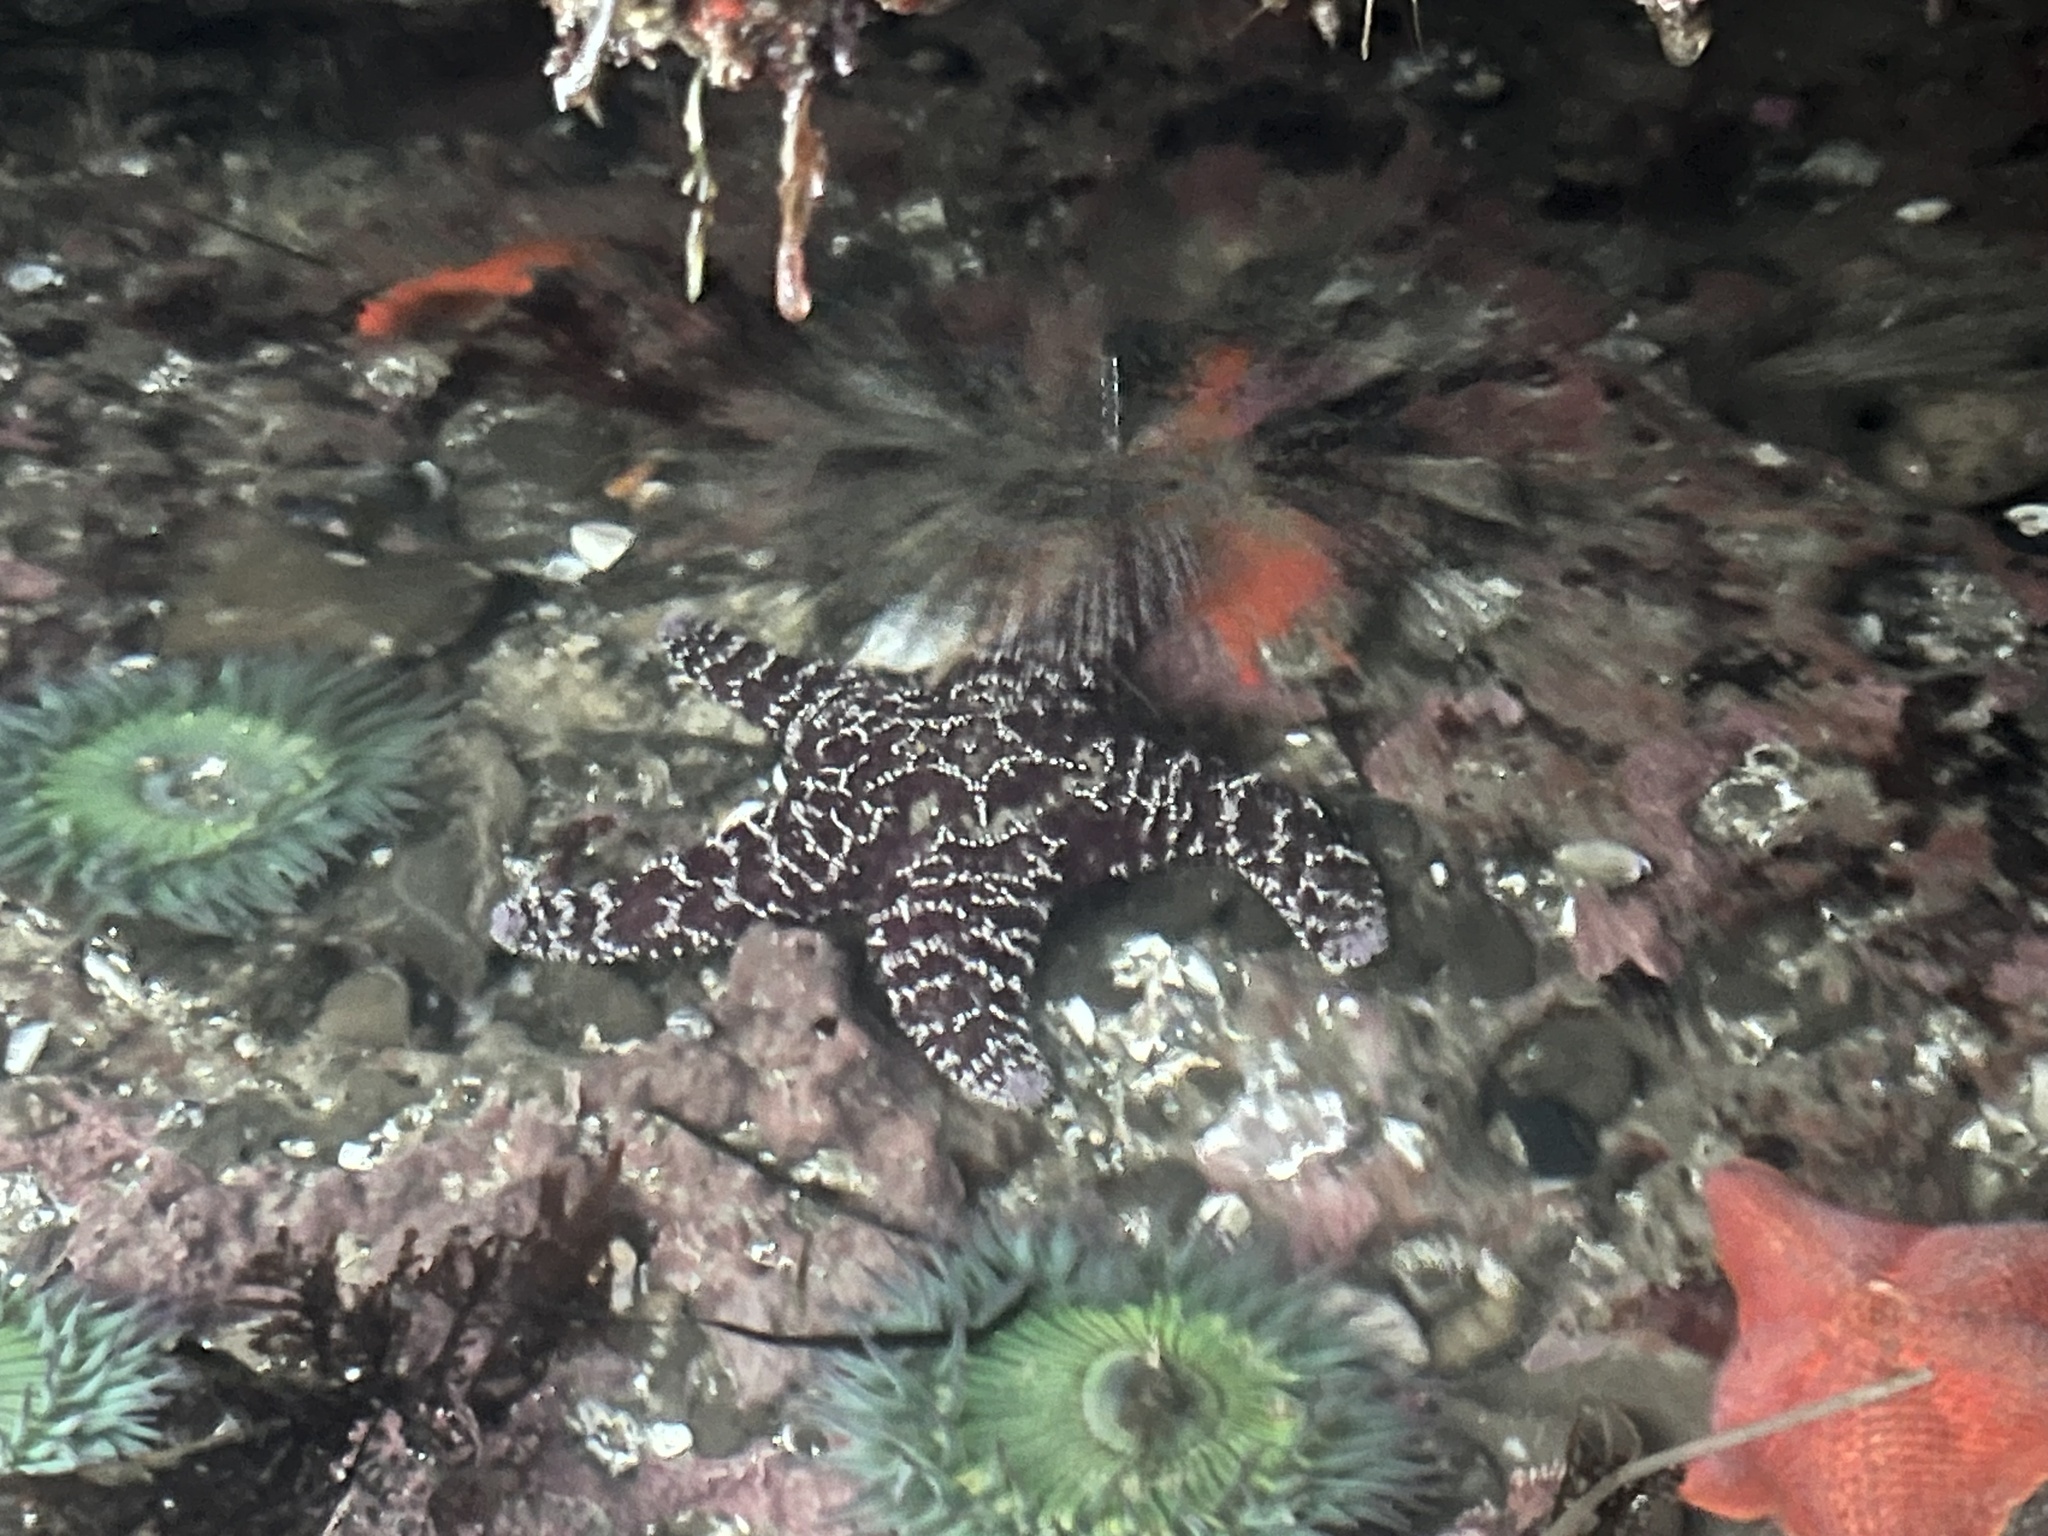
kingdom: Animalia
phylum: Echinodermata
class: Asteroidea
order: Forcipulatida
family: Asteriidae
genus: Pisaster
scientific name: Pisaster ochraceus
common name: Ochre stars
